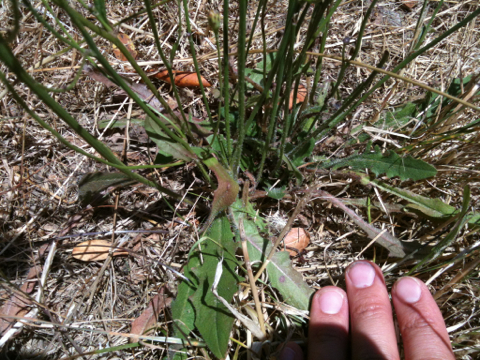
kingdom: Plantae
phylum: Tracheophyta
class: Magnoliopsida
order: Asterales
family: Asteraceae
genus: Hypochaeris
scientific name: Hypochaeris radicata
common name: Flatweed
